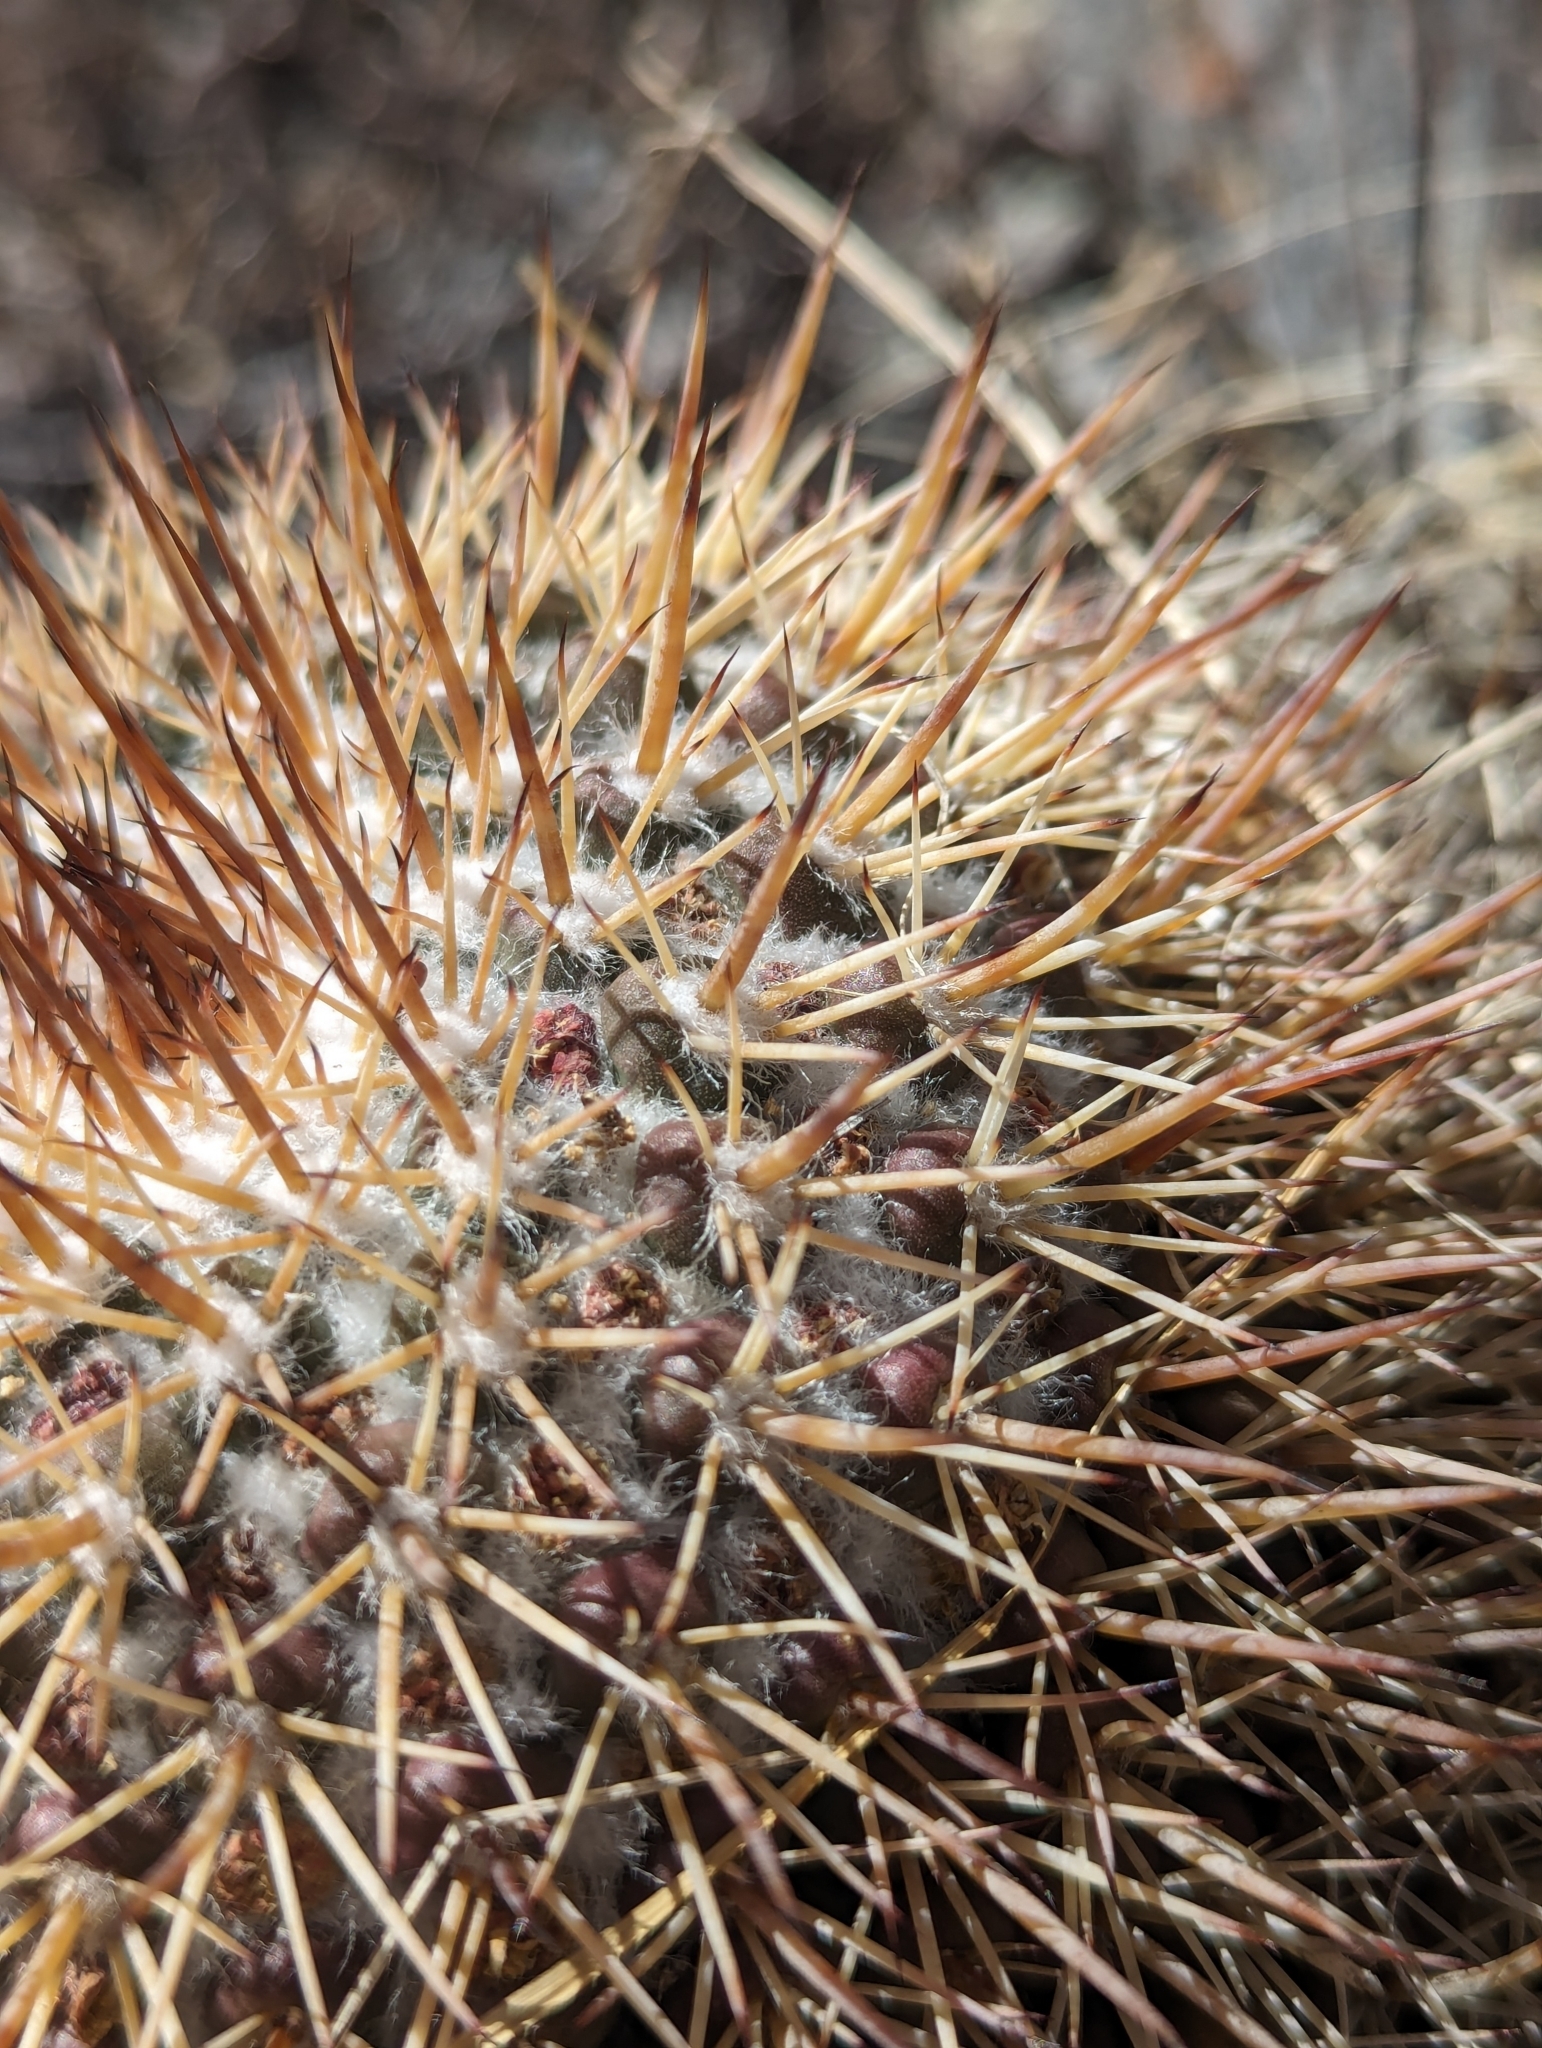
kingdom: Plantae
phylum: Tracheophyta
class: Magnoliopsida
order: Caryophyllales
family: Cactaceae
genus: Mammillaria
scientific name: Mammillaria petrophila
